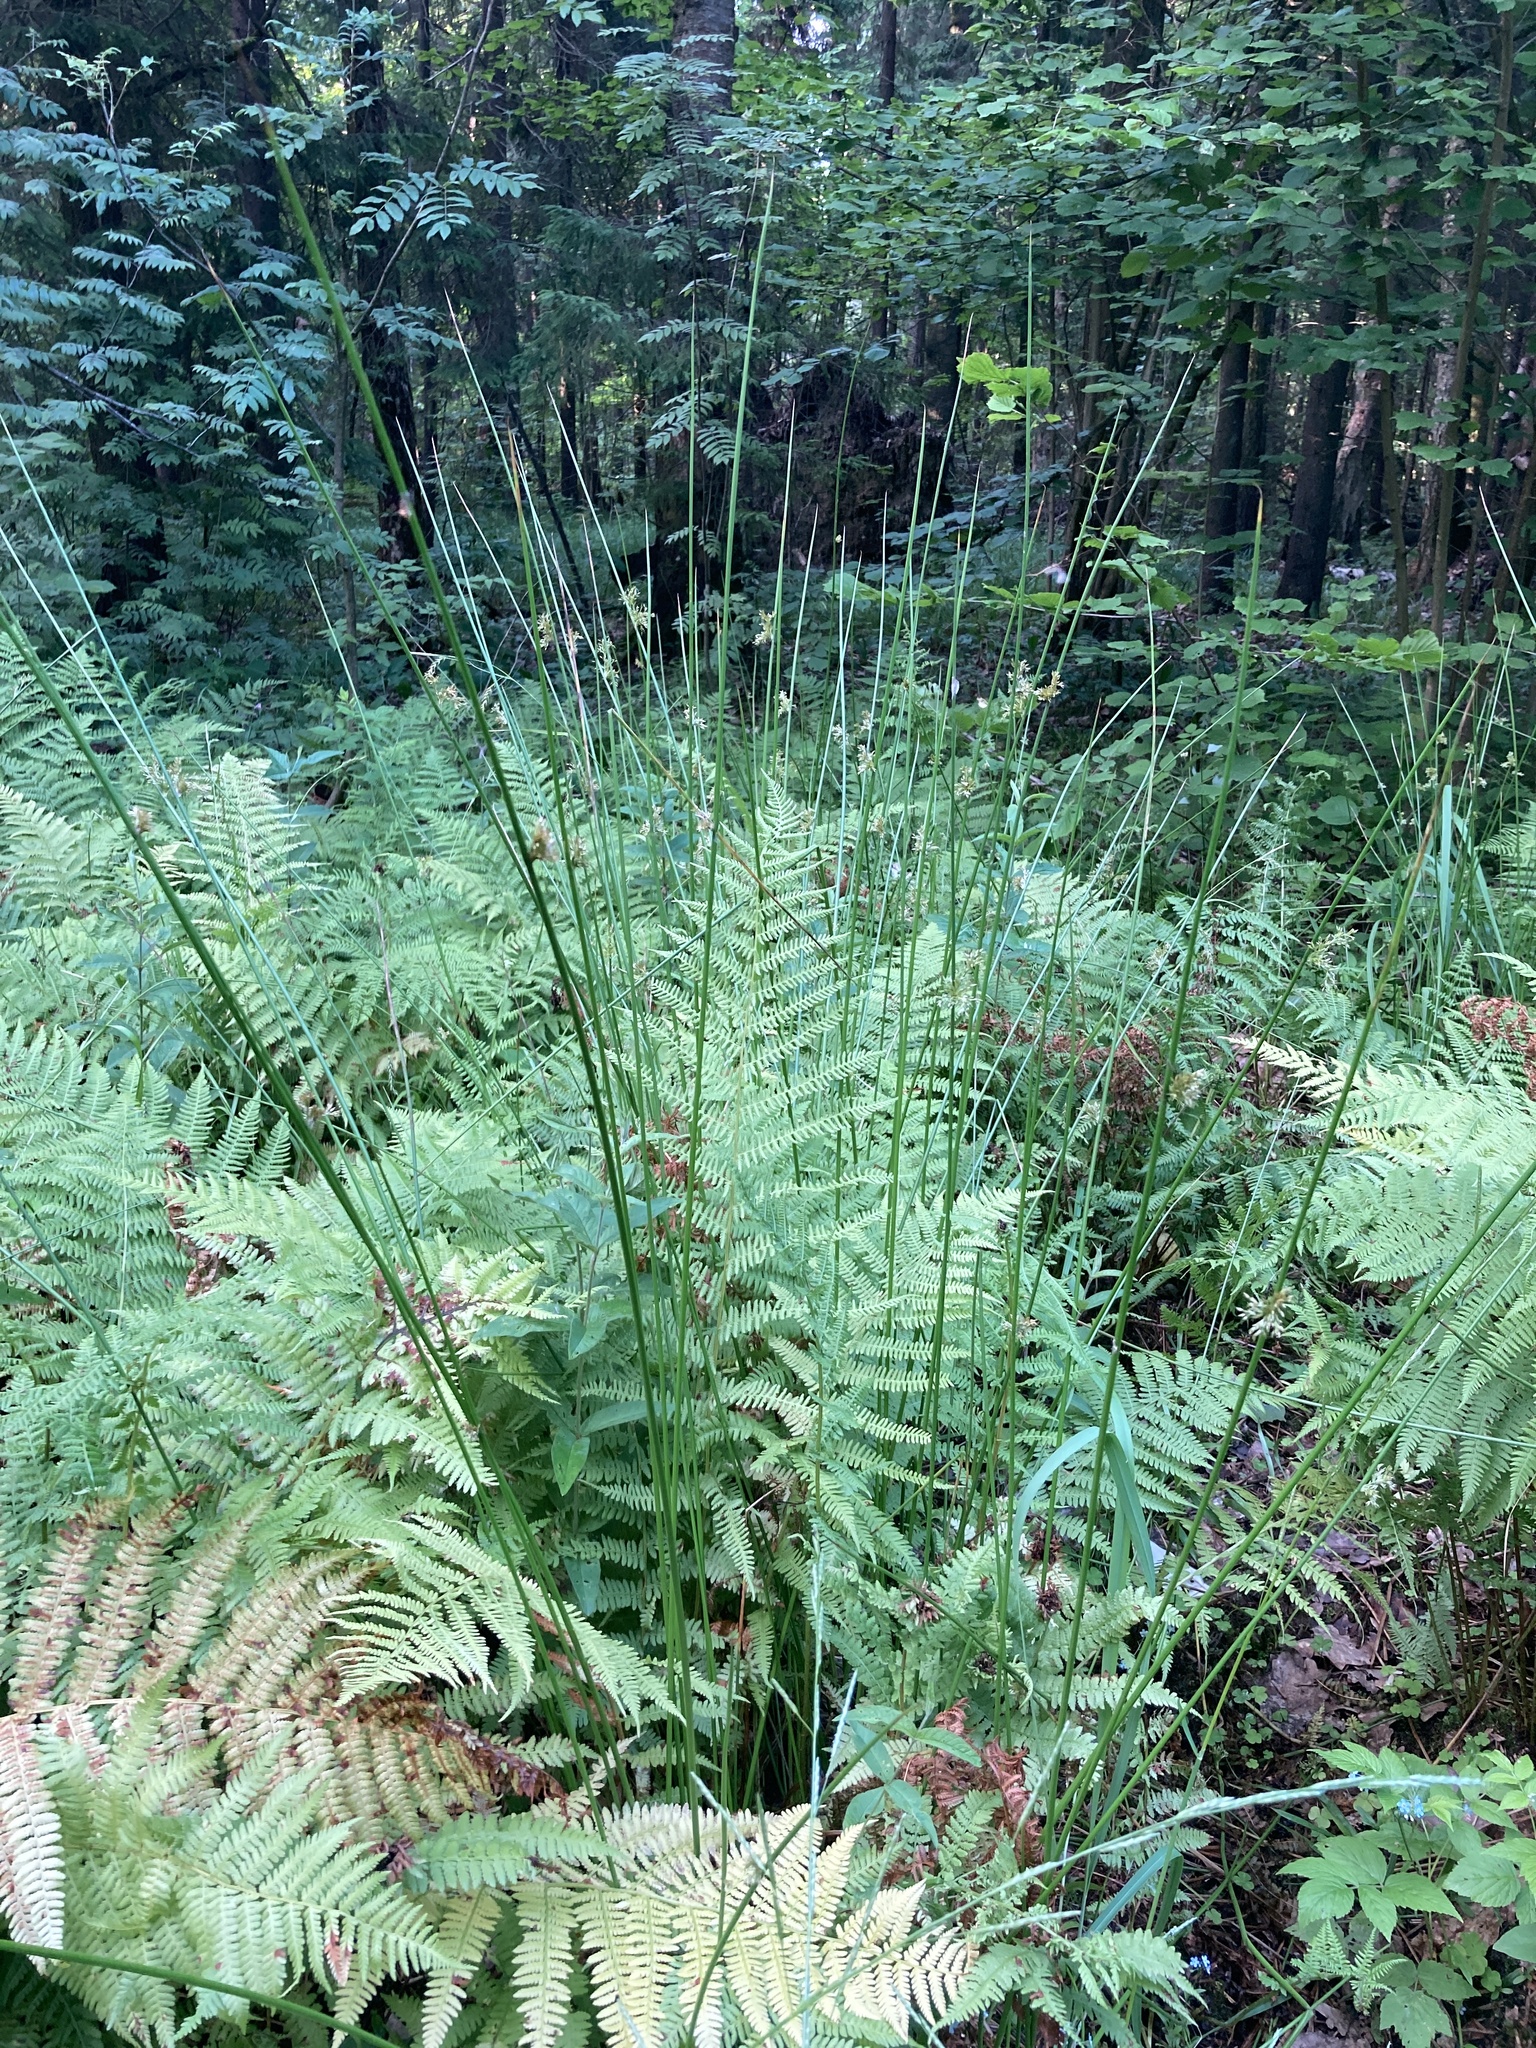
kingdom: Plantae
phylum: Tracheophyta
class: Liliopsida
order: Poales
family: Juncaceae
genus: Juncus
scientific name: Juncus effusus
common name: Soft rush
